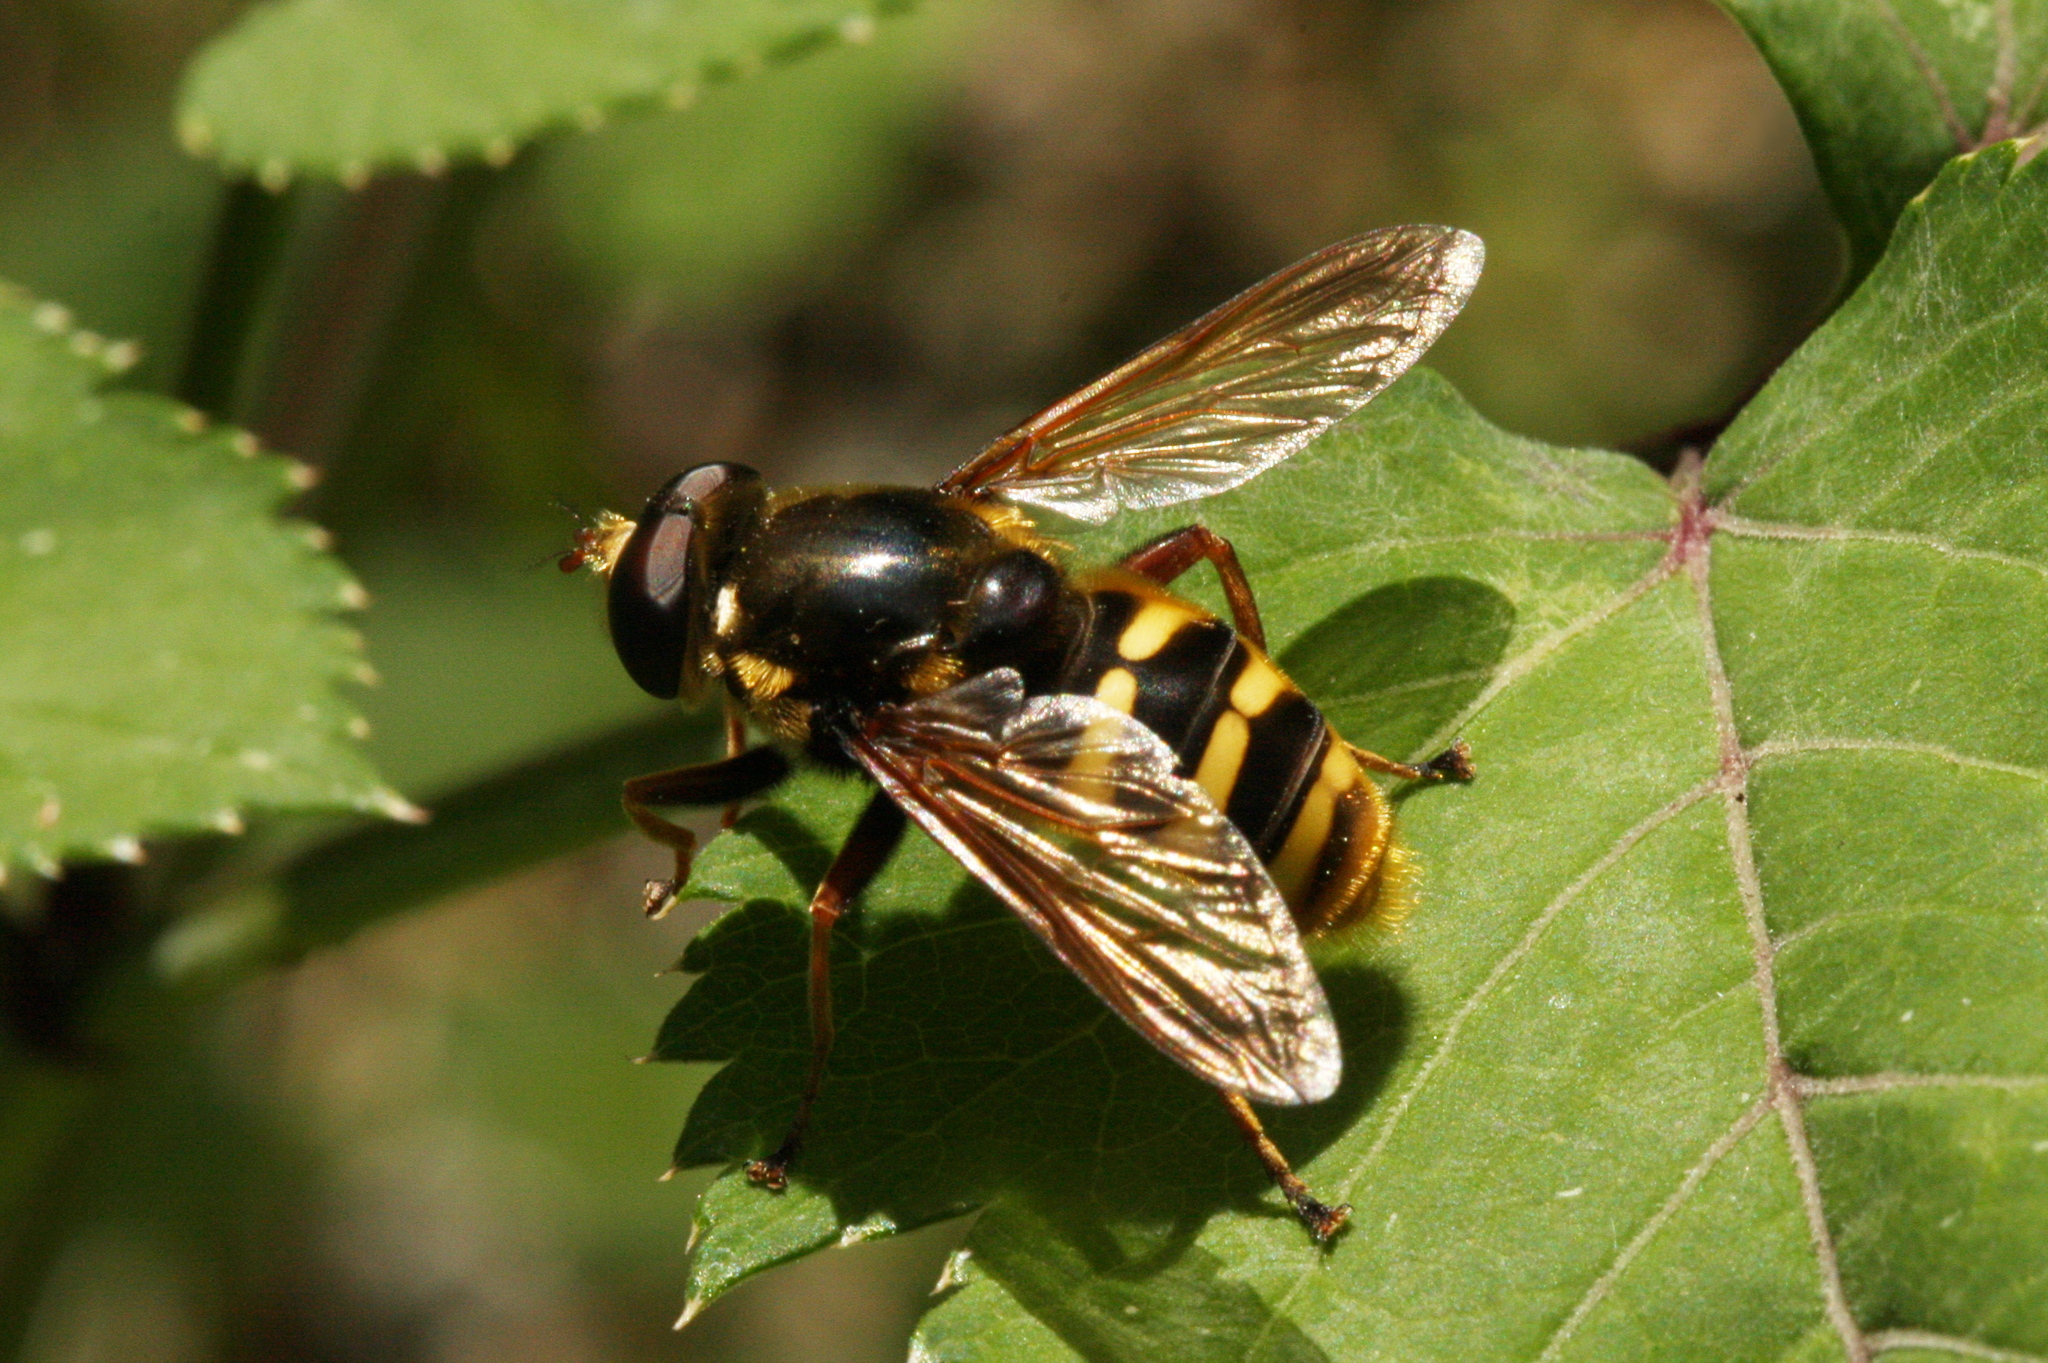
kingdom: Animalia
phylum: Arthropoda
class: Insecta
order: Diptera
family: Syrphidae
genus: Sericomyia
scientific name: Sericomyia silentis
